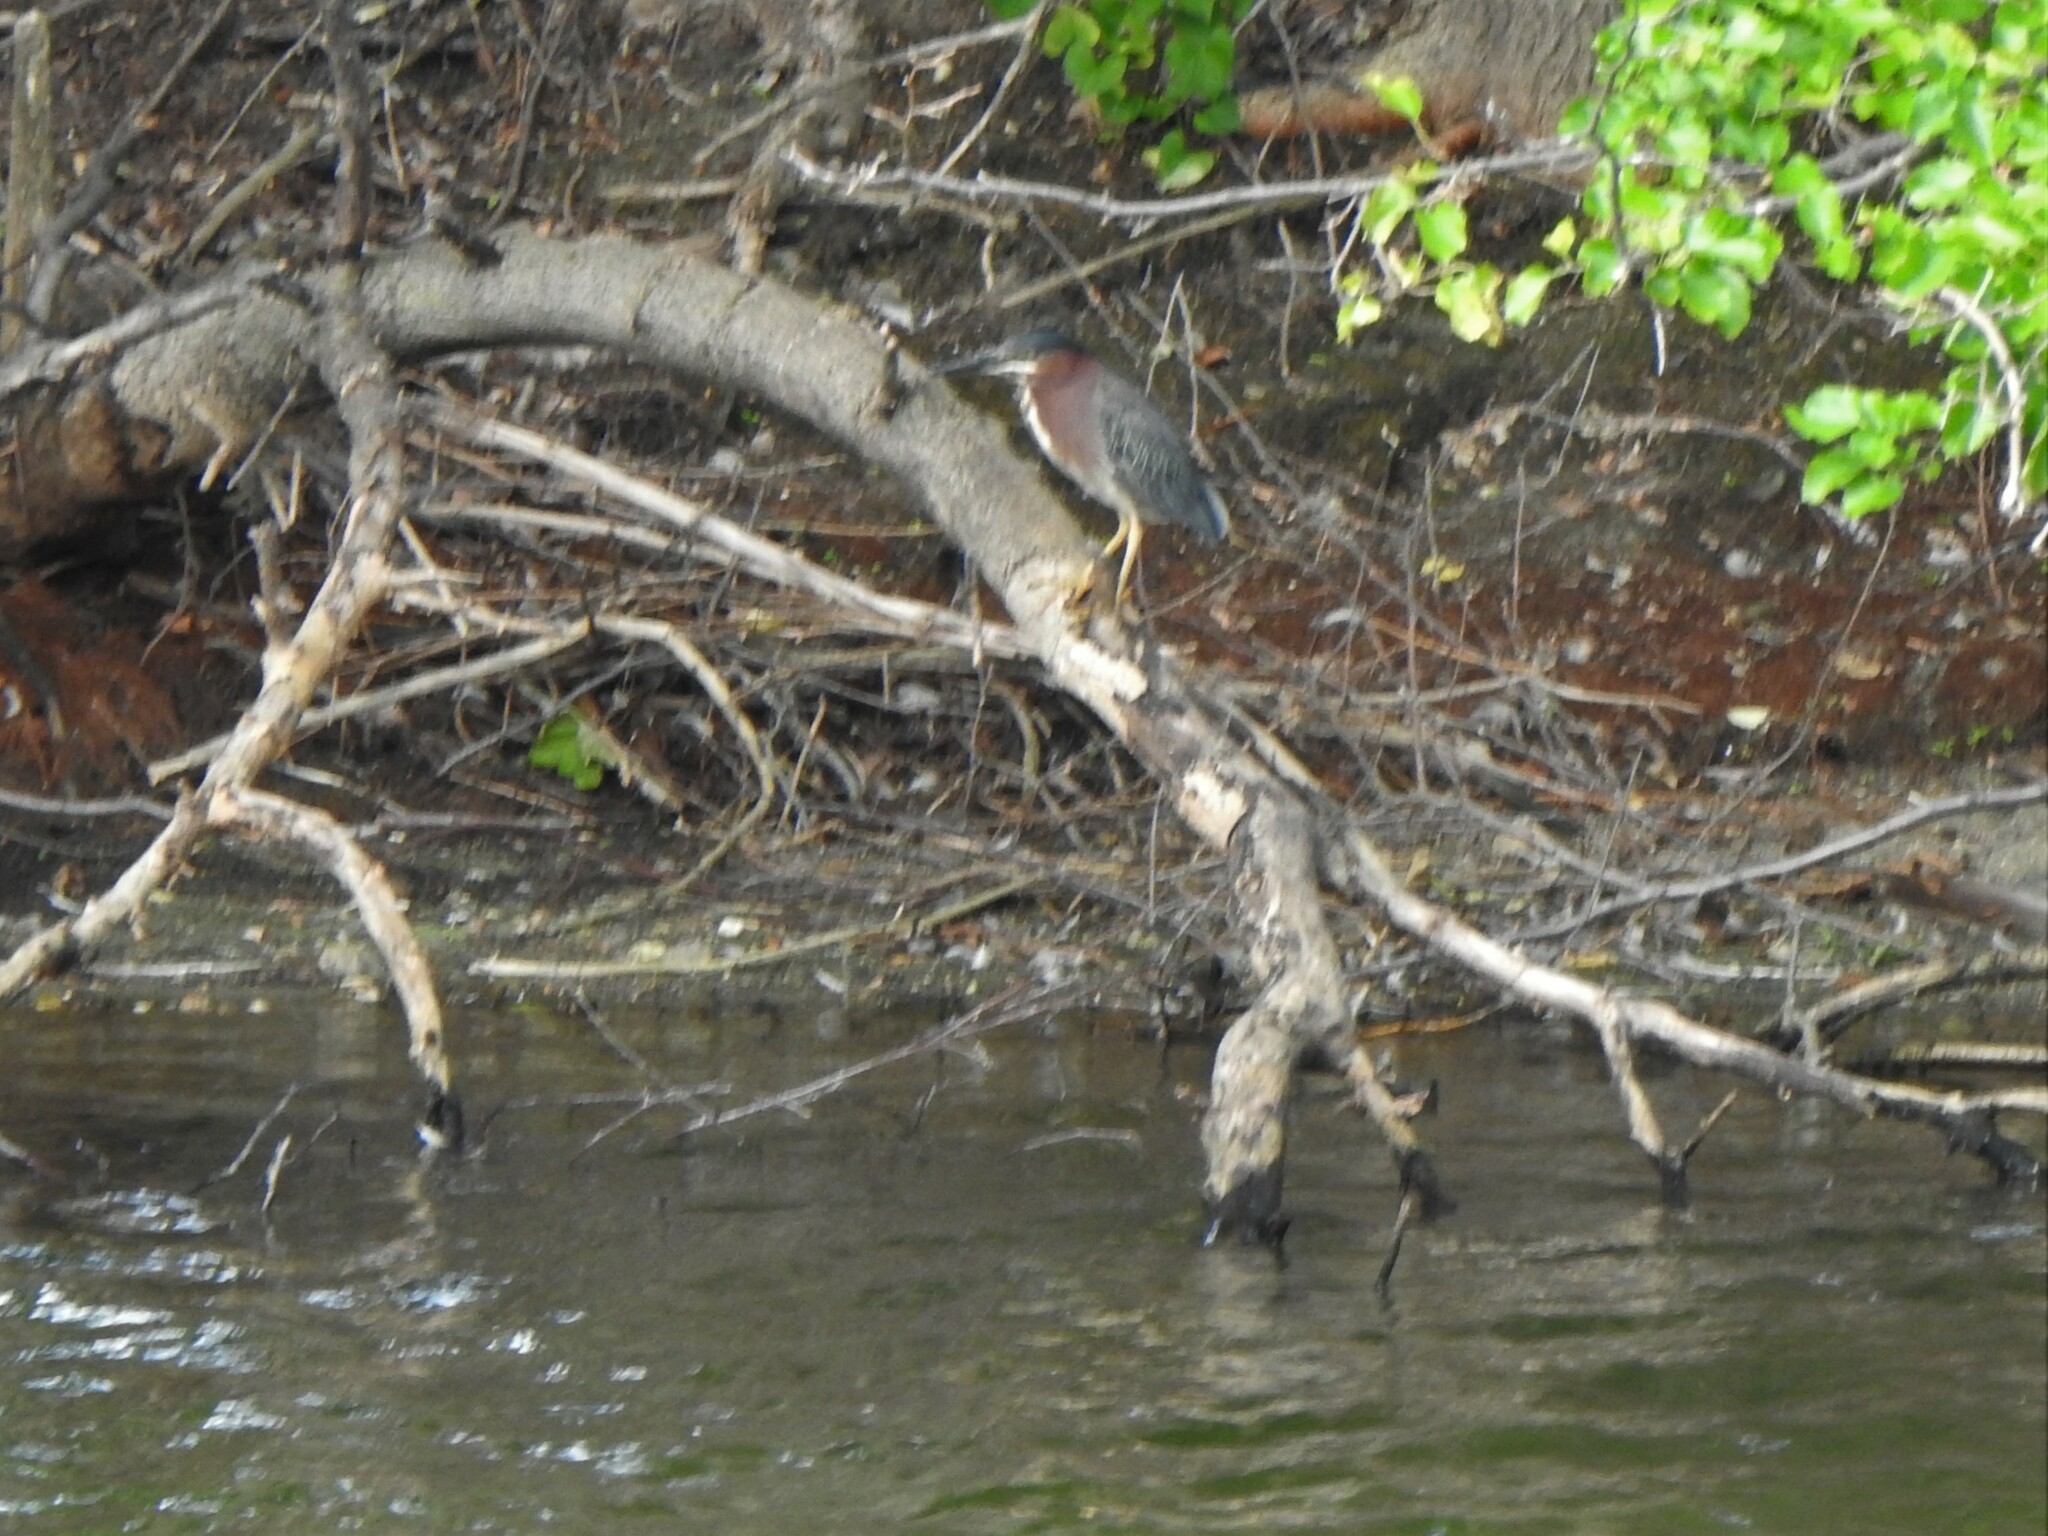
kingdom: Animalia
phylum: Chordata
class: Aves
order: Pelecaniformes
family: Ardeidae
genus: Butorides
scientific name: Butorides virescens
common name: Green heron
